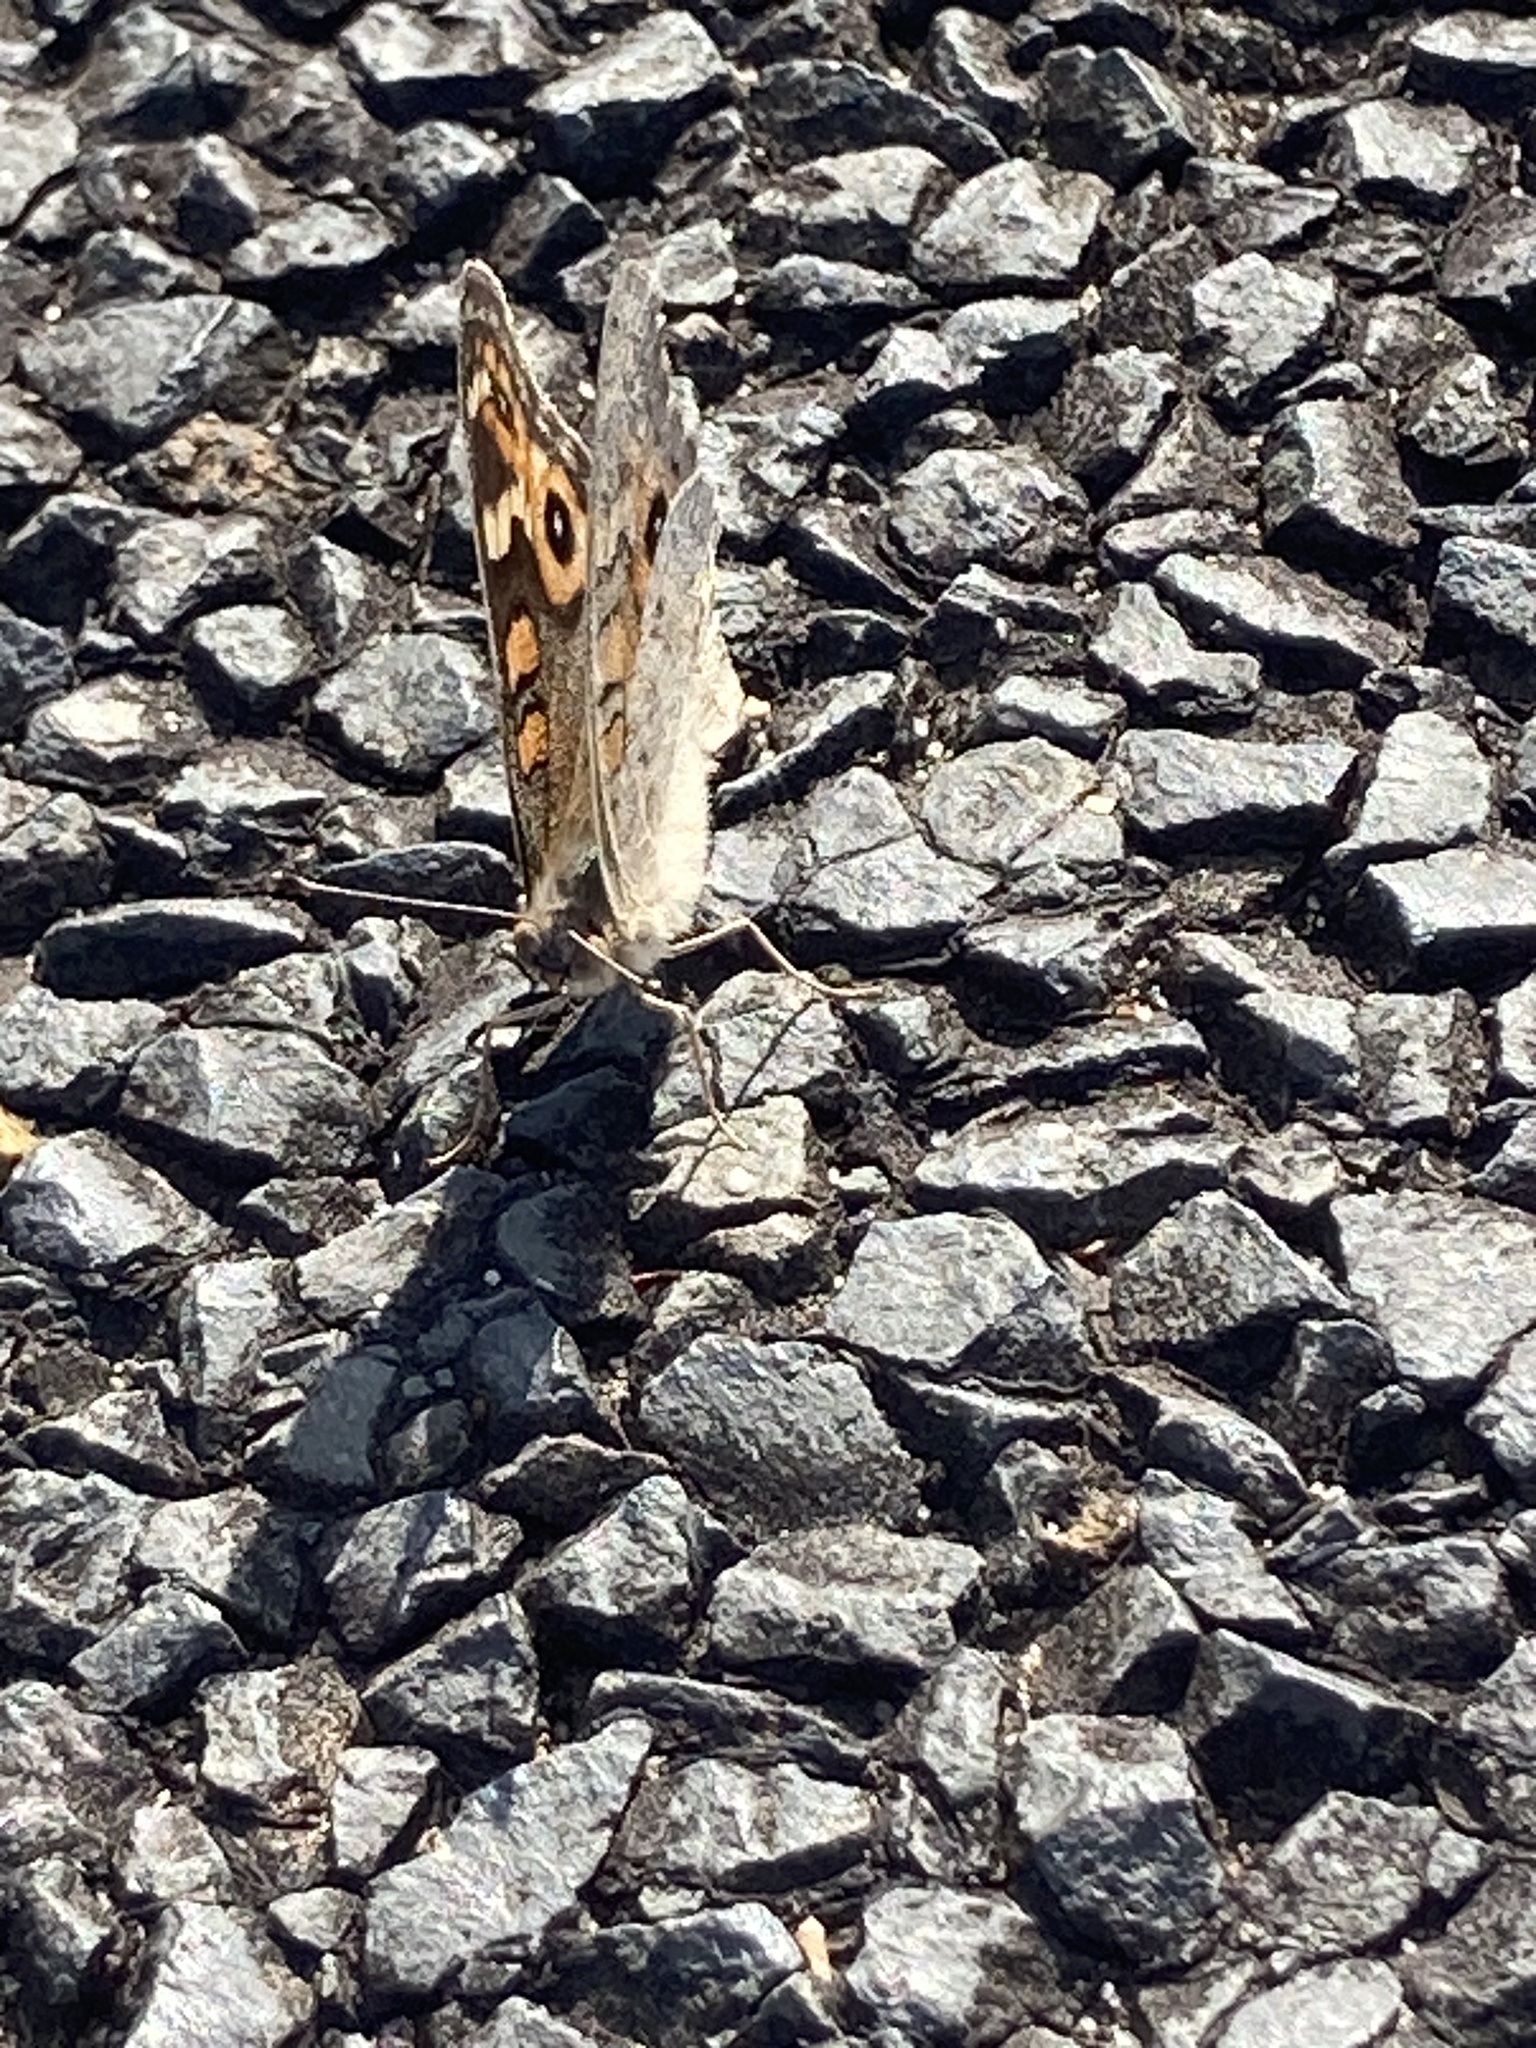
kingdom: Animalia
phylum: Arthropoda
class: Insecta
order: Lepidoptera
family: Nymphalidae
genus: Junonia
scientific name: Junonia villida
